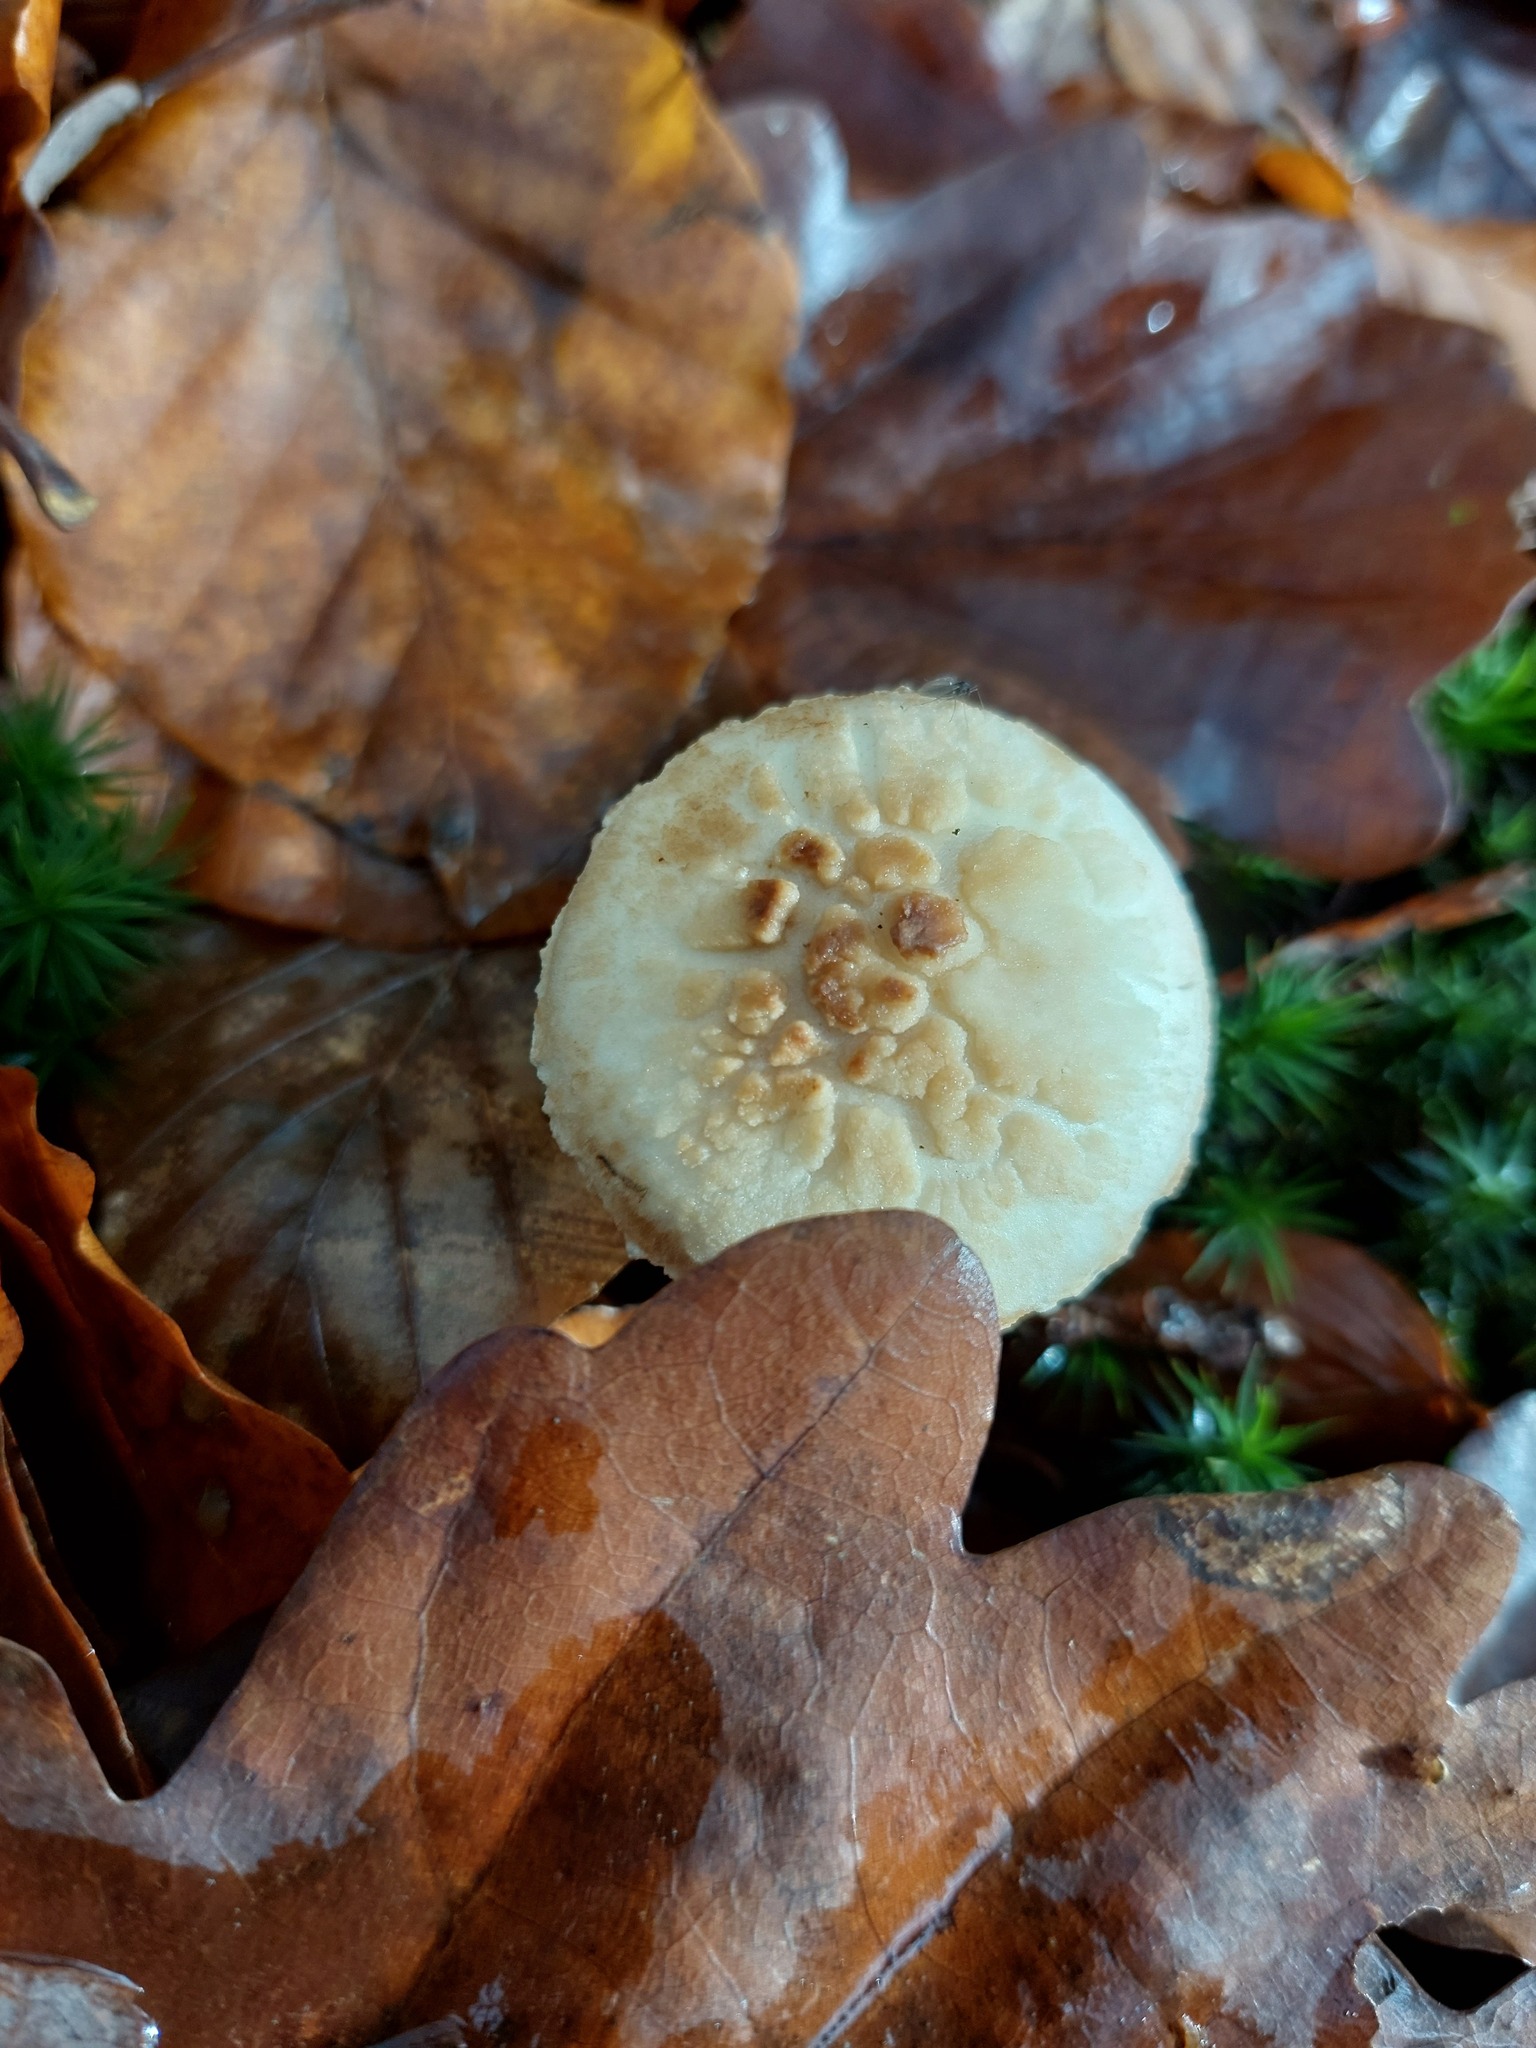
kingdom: Fungi
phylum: Basidiomycota
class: Agaricomycetes
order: Agaricales
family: Amanitaceae
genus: Amanita
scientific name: Amanita citrina
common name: False death-cap
